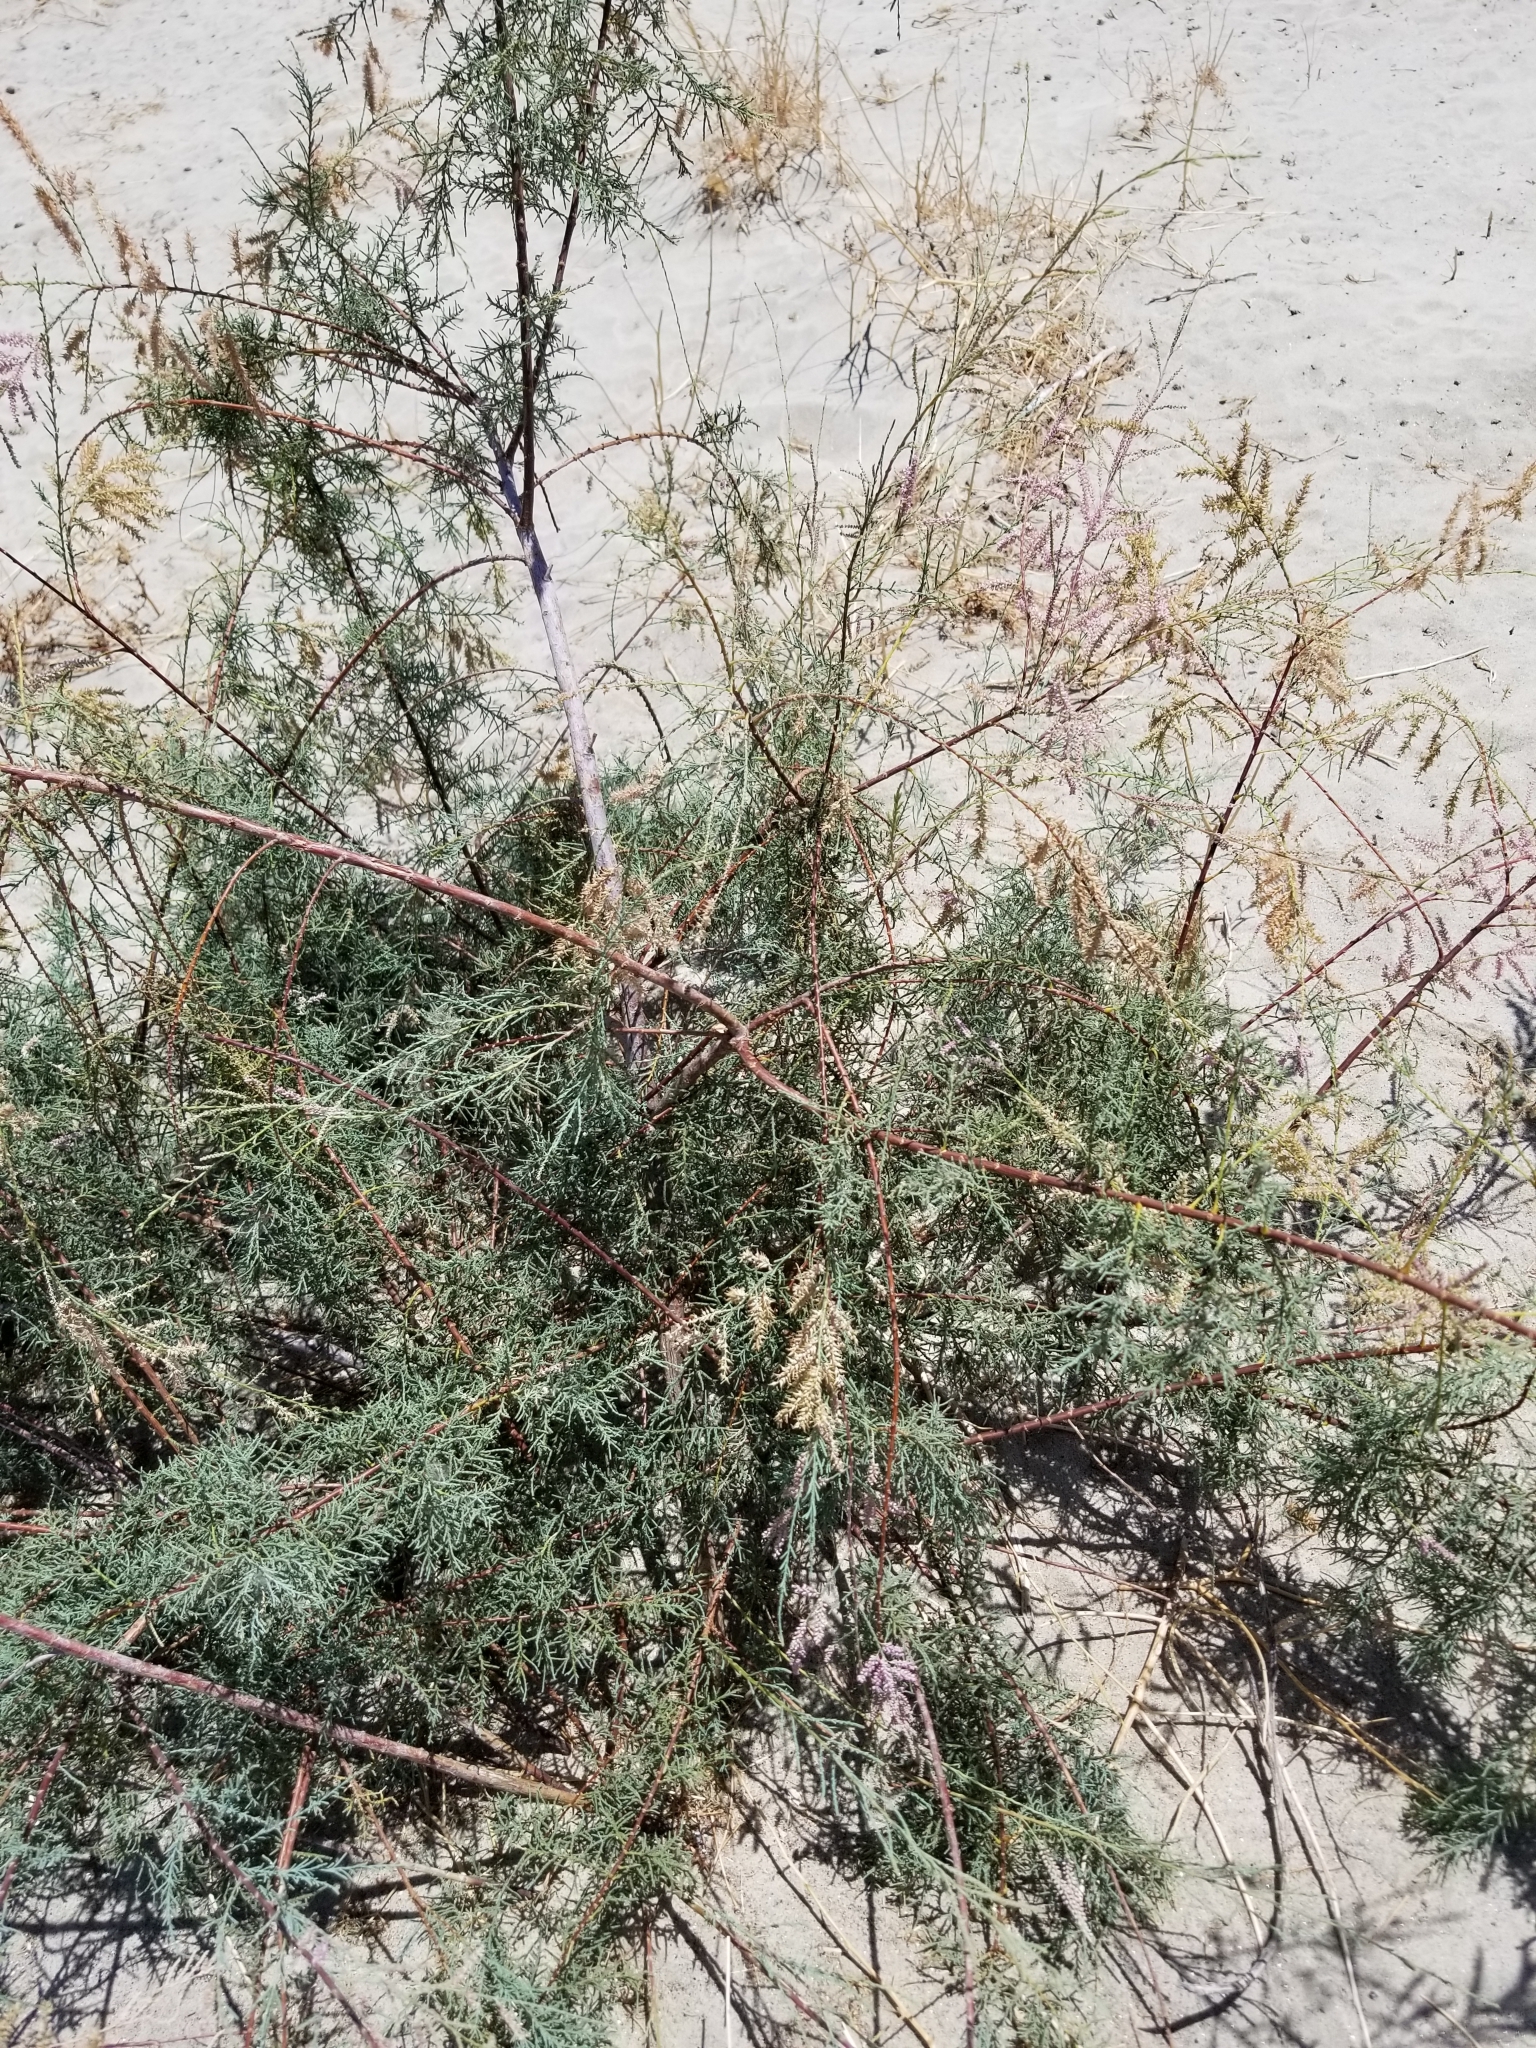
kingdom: Plantae
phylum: Tracheophyta
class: Magnoliopsida
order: Caryophyllales
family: Tamaricaceae
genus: Tamarix
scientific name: Tamarix ramosissima
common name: Pink tamarisk
